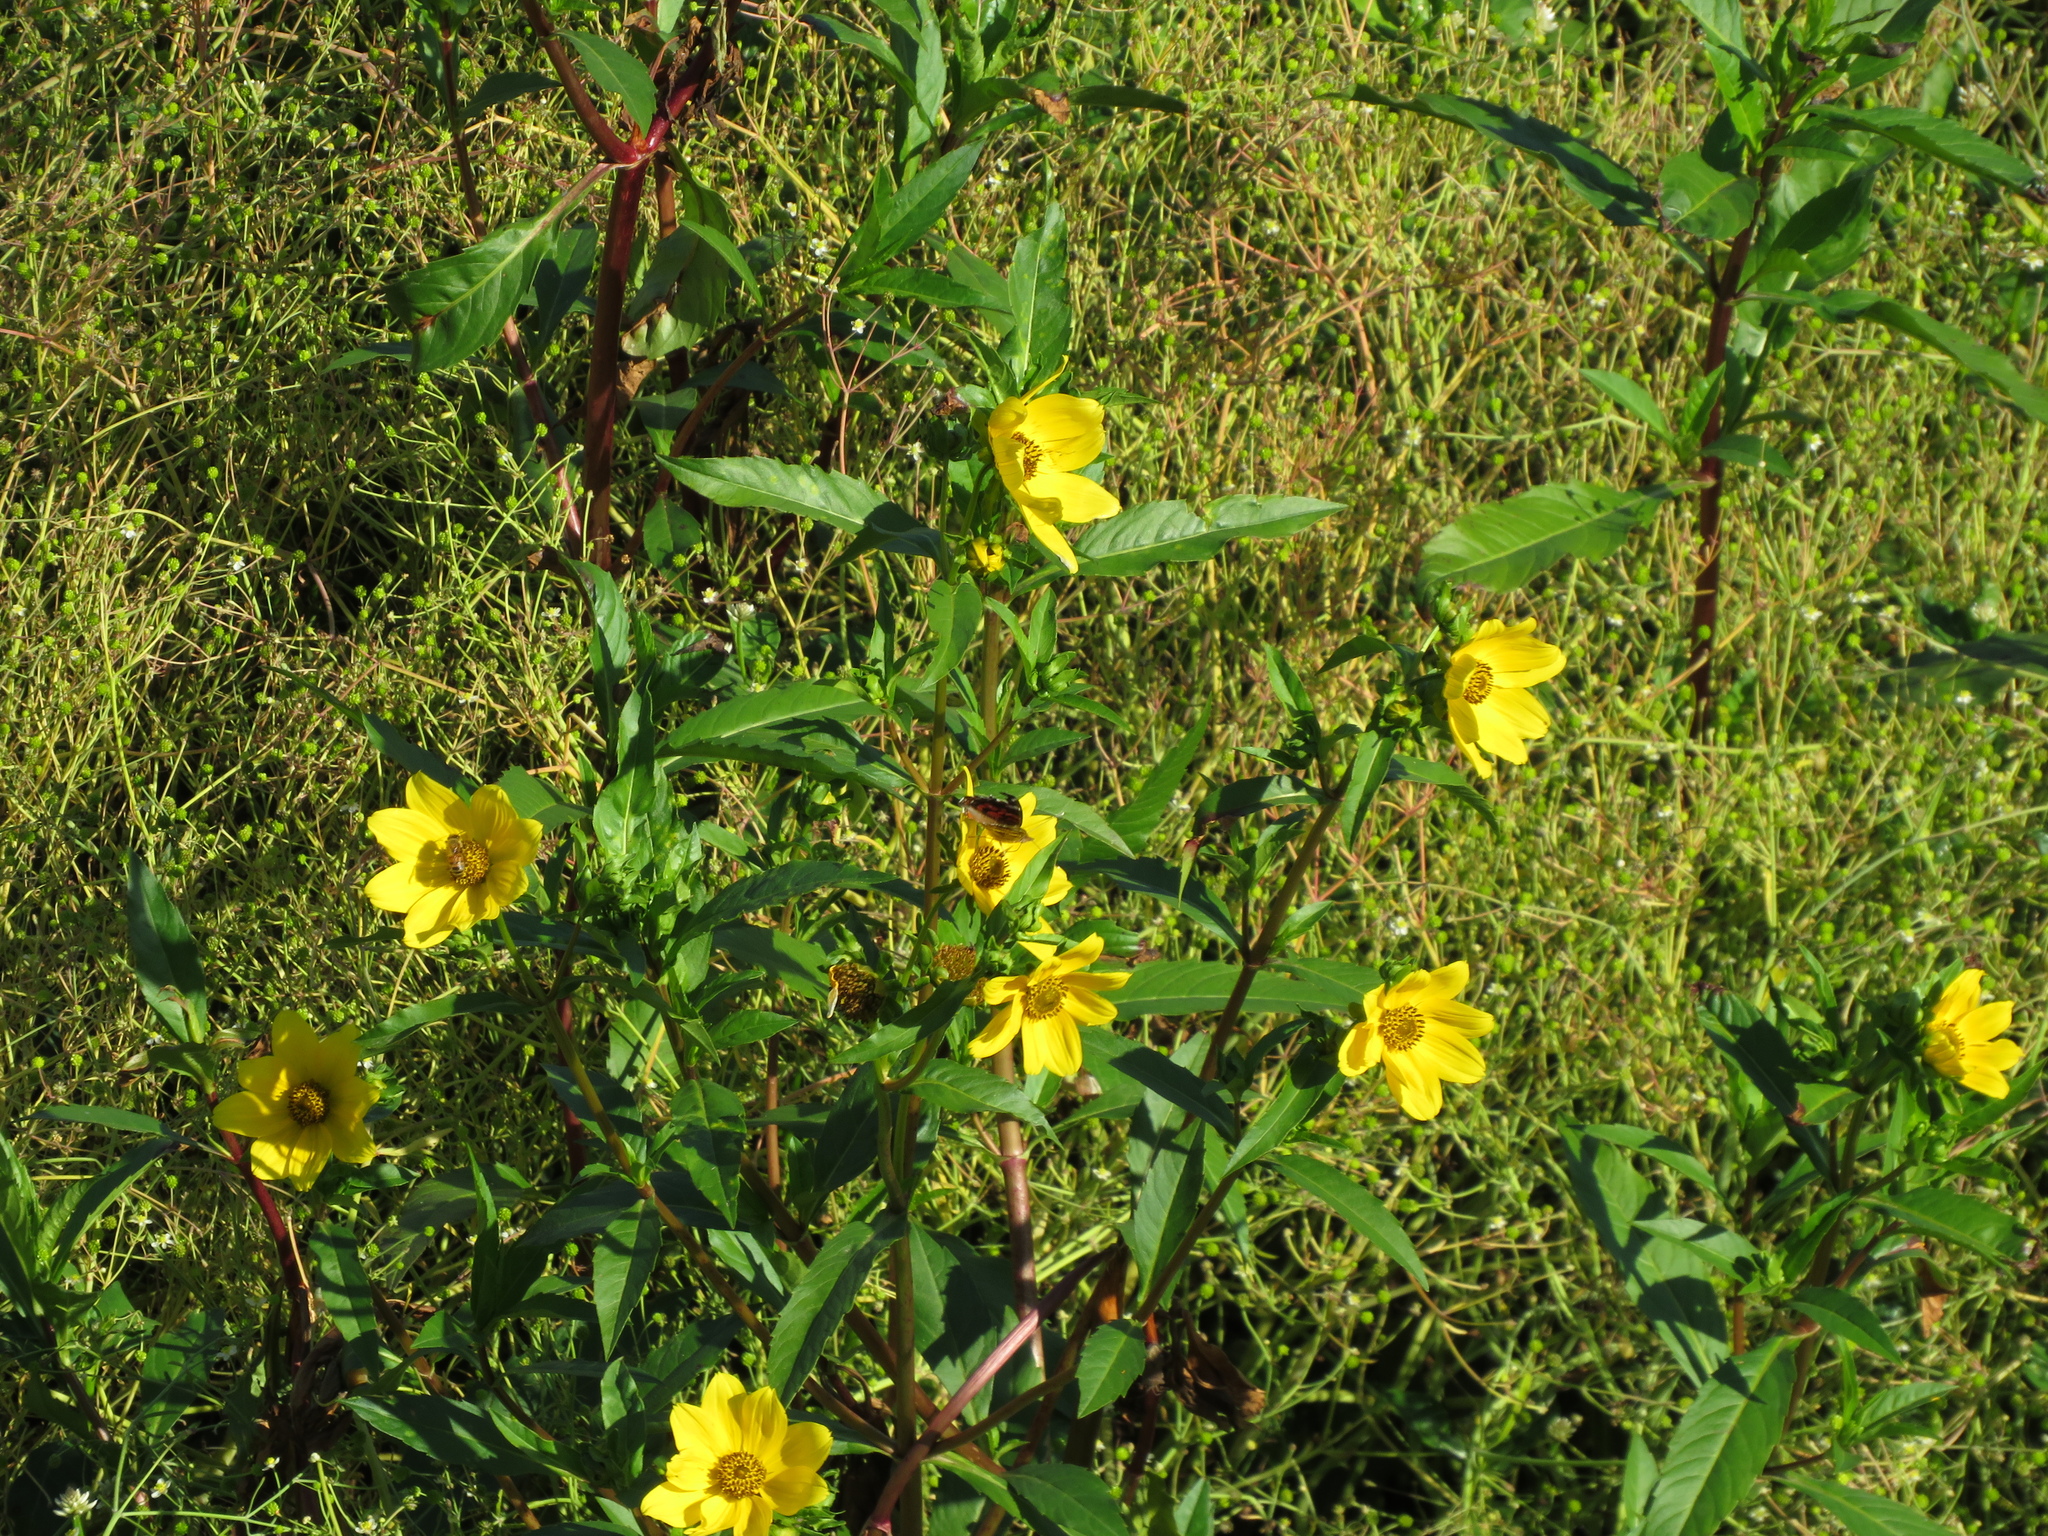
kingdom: Plantae
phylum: Tracheophyta
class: Magnoliopsida
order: Asterales
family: Asteraceae
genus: Bidens
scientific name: Bidens laevis
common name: Larger bur-marigold
